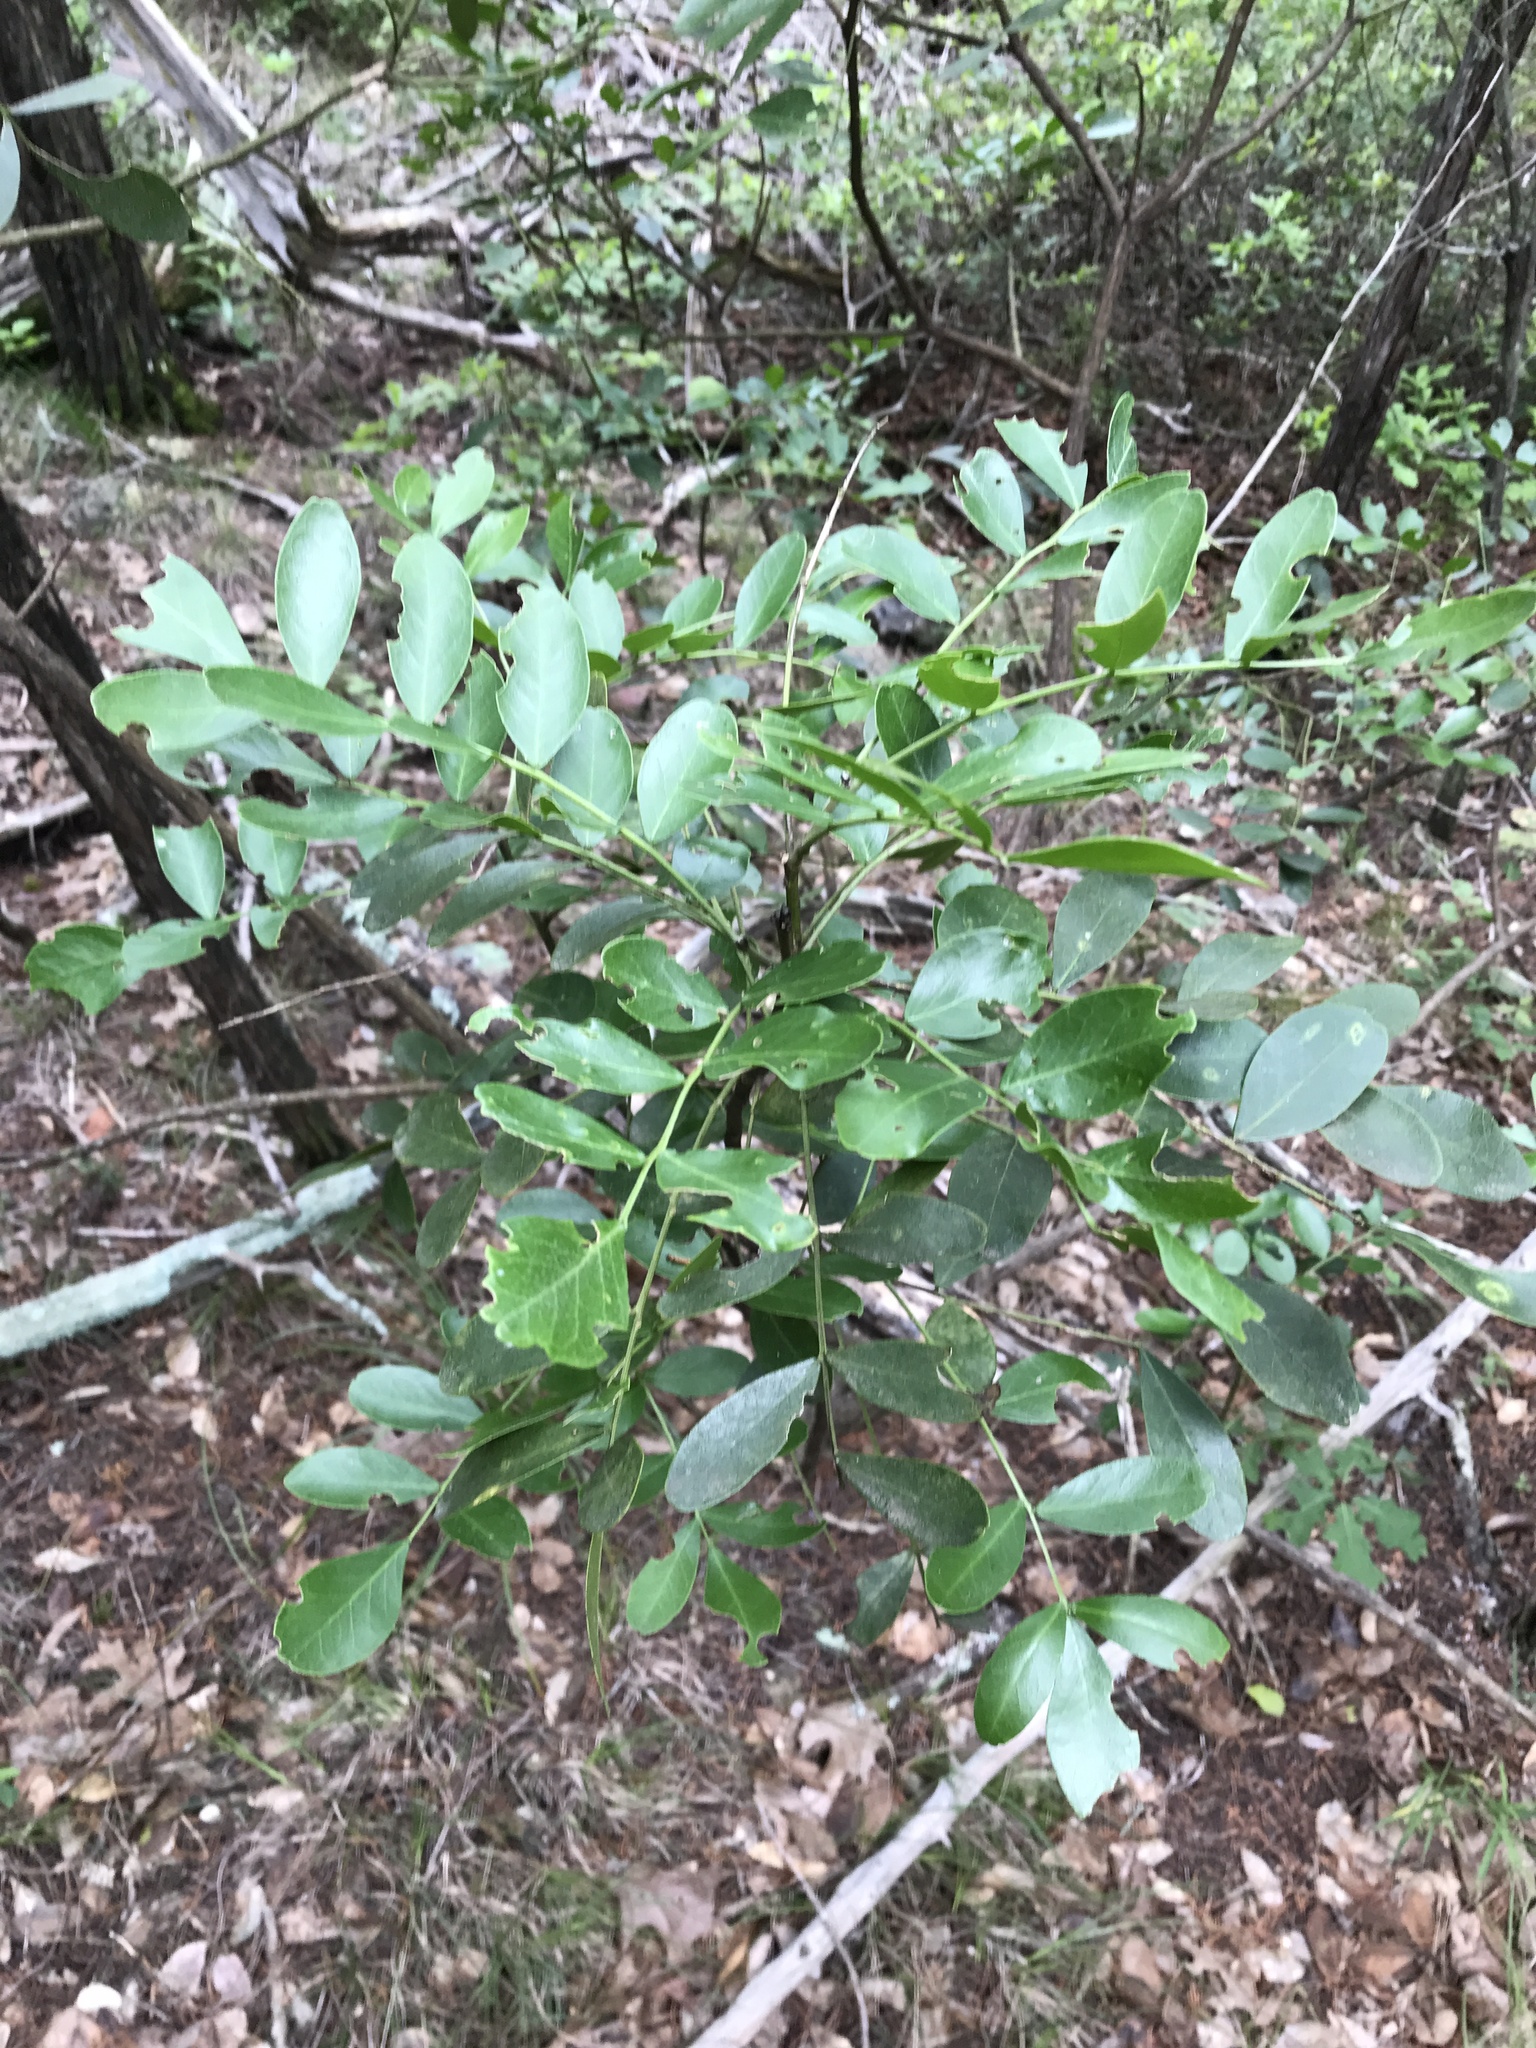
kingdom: Plantae
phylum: Tracheophyta
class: Magnoliopsida
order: Fabales
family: Fabaceae
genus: Dermatophyllum
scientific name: Dermatophyllum secundiflorum
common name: Texas-mountain-laurel
